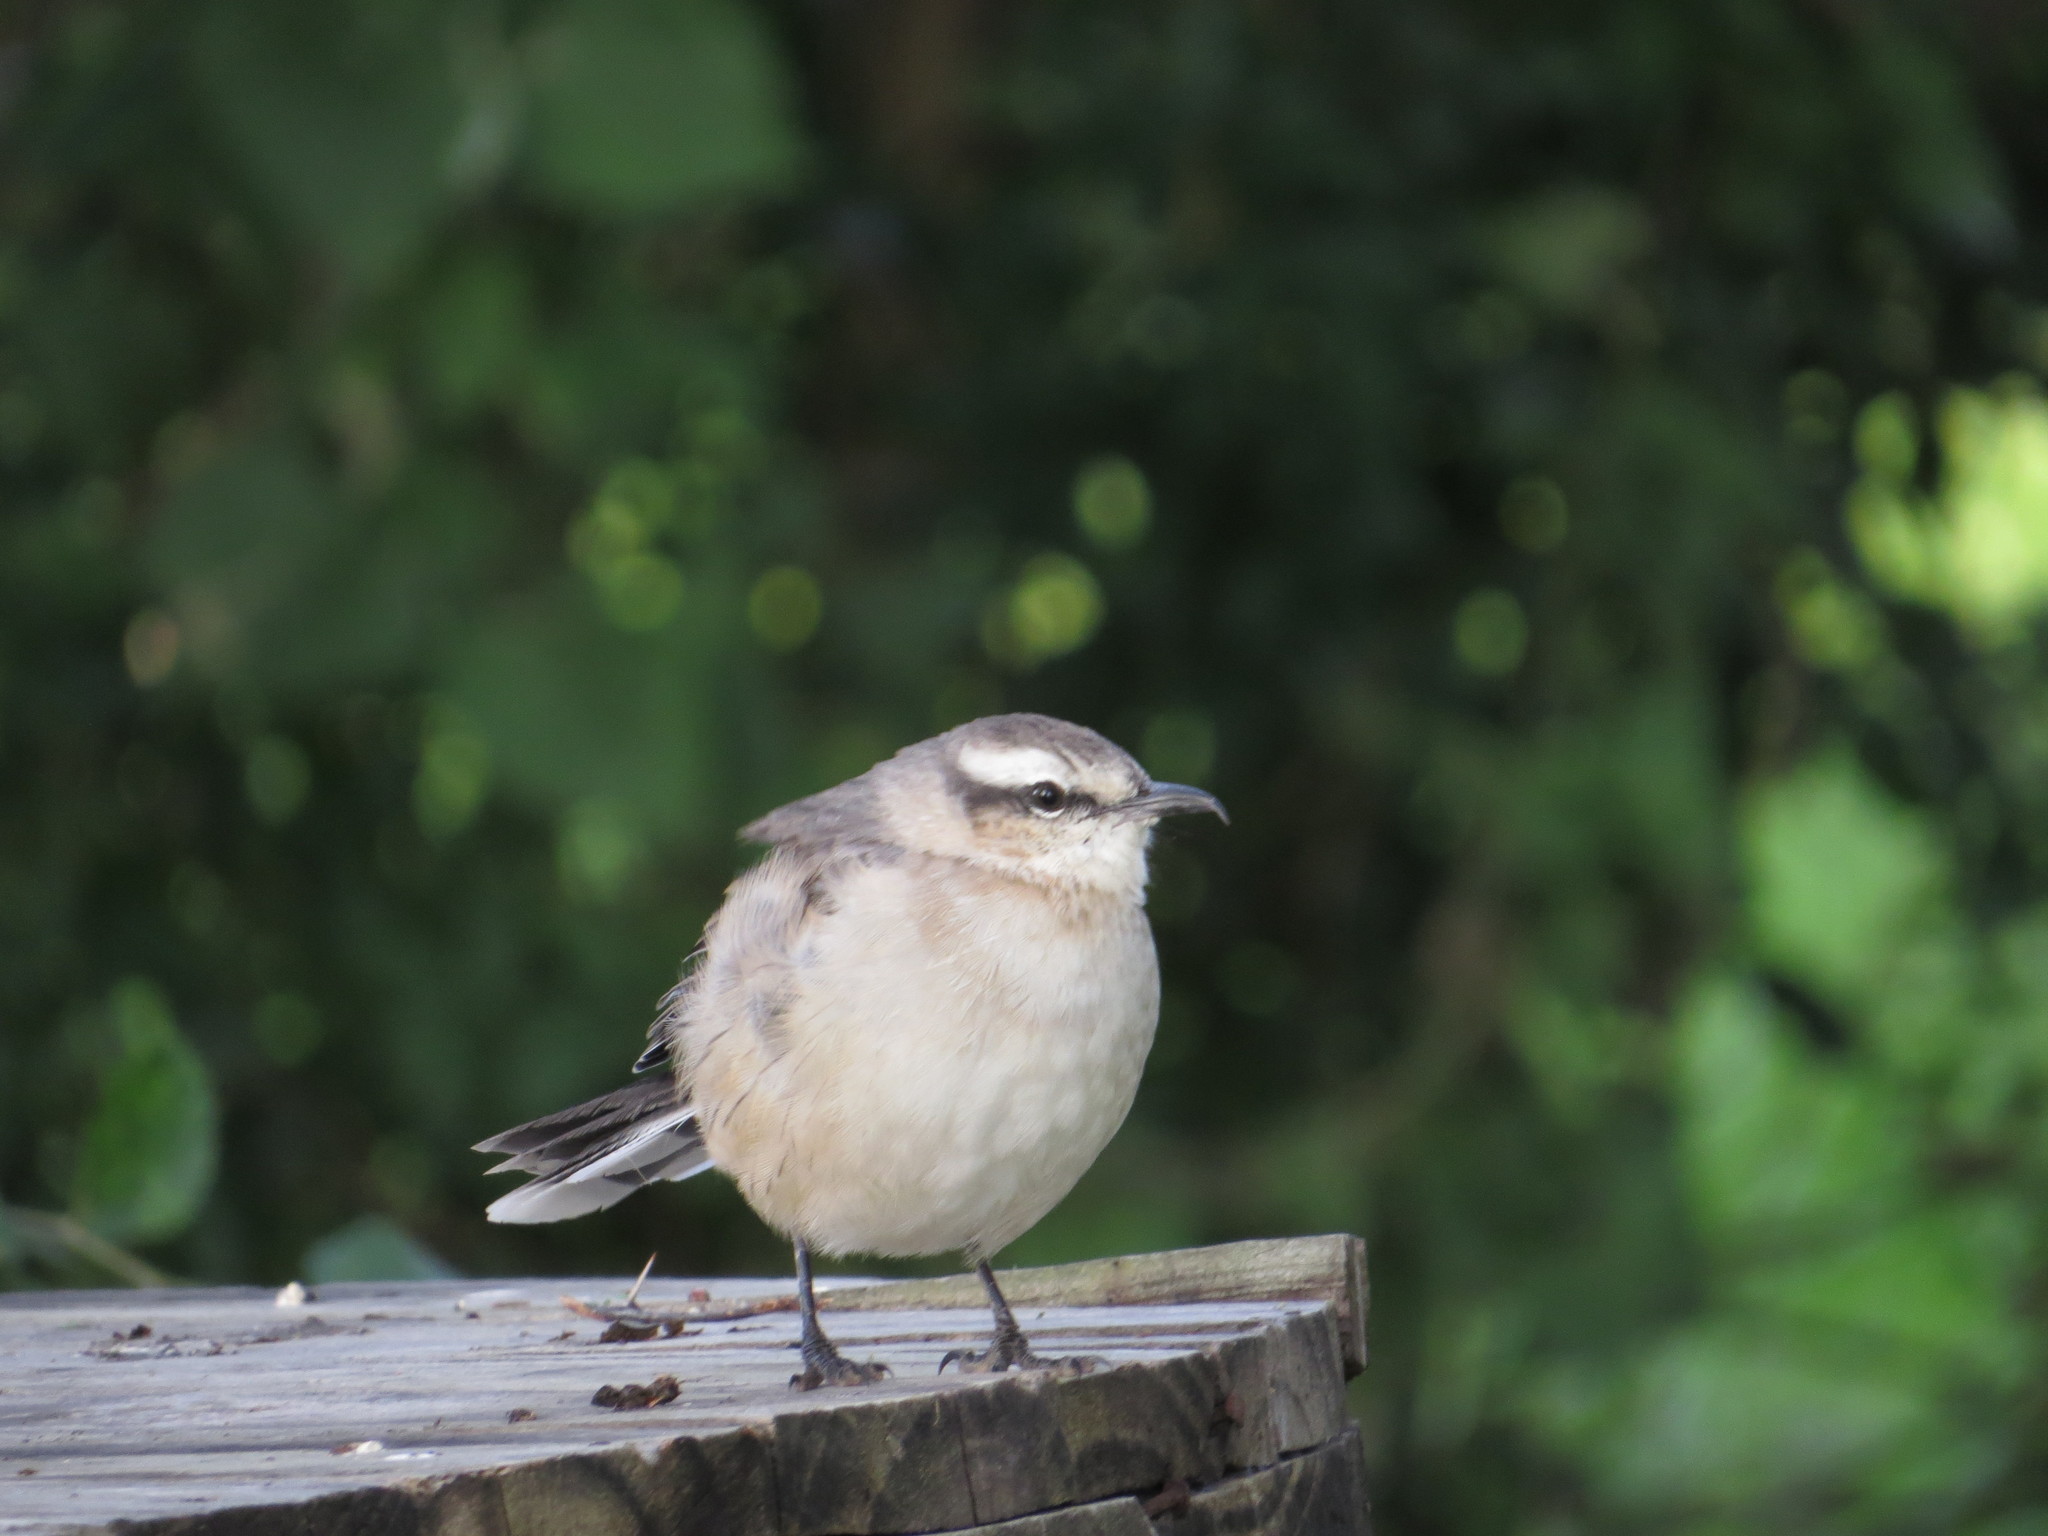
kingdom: Animalia
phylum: Chordata
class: Aves
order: Passeriformes
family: Mimidae
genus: Mimus
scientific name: Mimus saturninus
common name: Chalk-browed mockingbird
